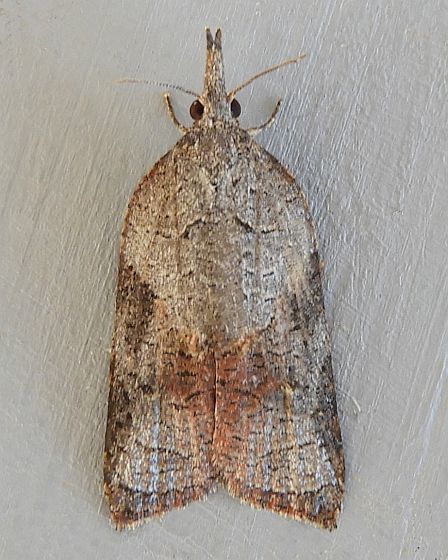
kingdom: Animalia
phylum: Arthropoda
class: Insecta
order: Lepidoptera
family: Tortricidae
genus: Platynota
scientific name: Platynota wenzelana
